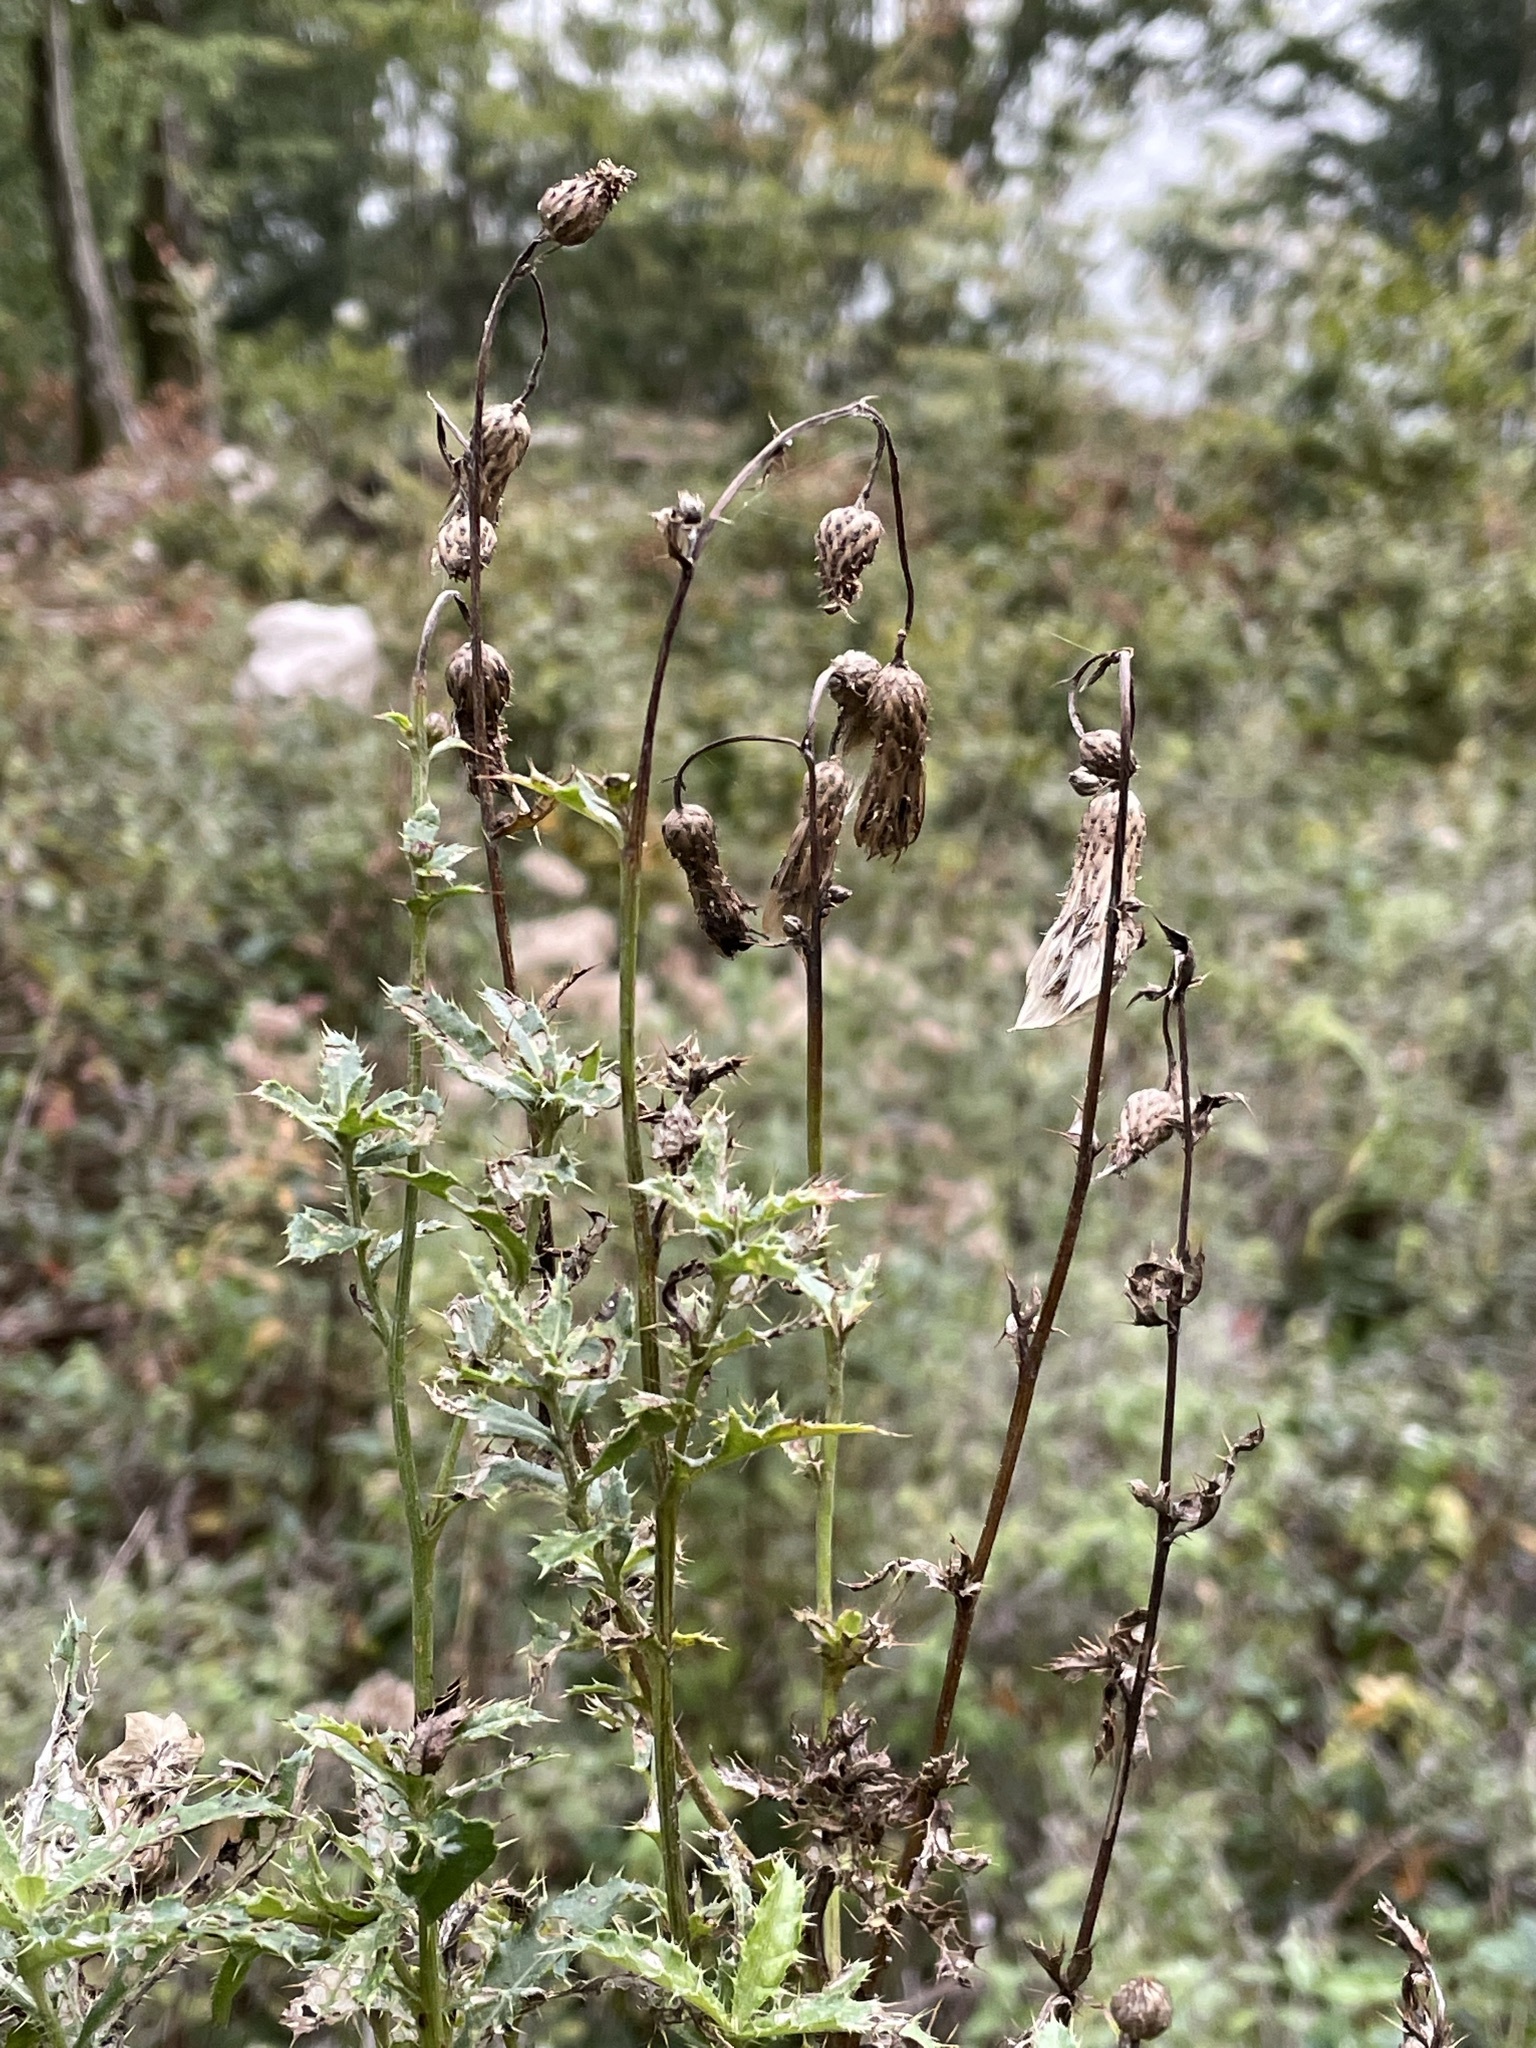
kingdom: Plantae
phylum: Tracheophyta
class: Magnoliopsida
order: Asterales
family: Asteraceae
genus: Cirsium
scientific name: Cirsium arvense
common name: Creeping thistle
